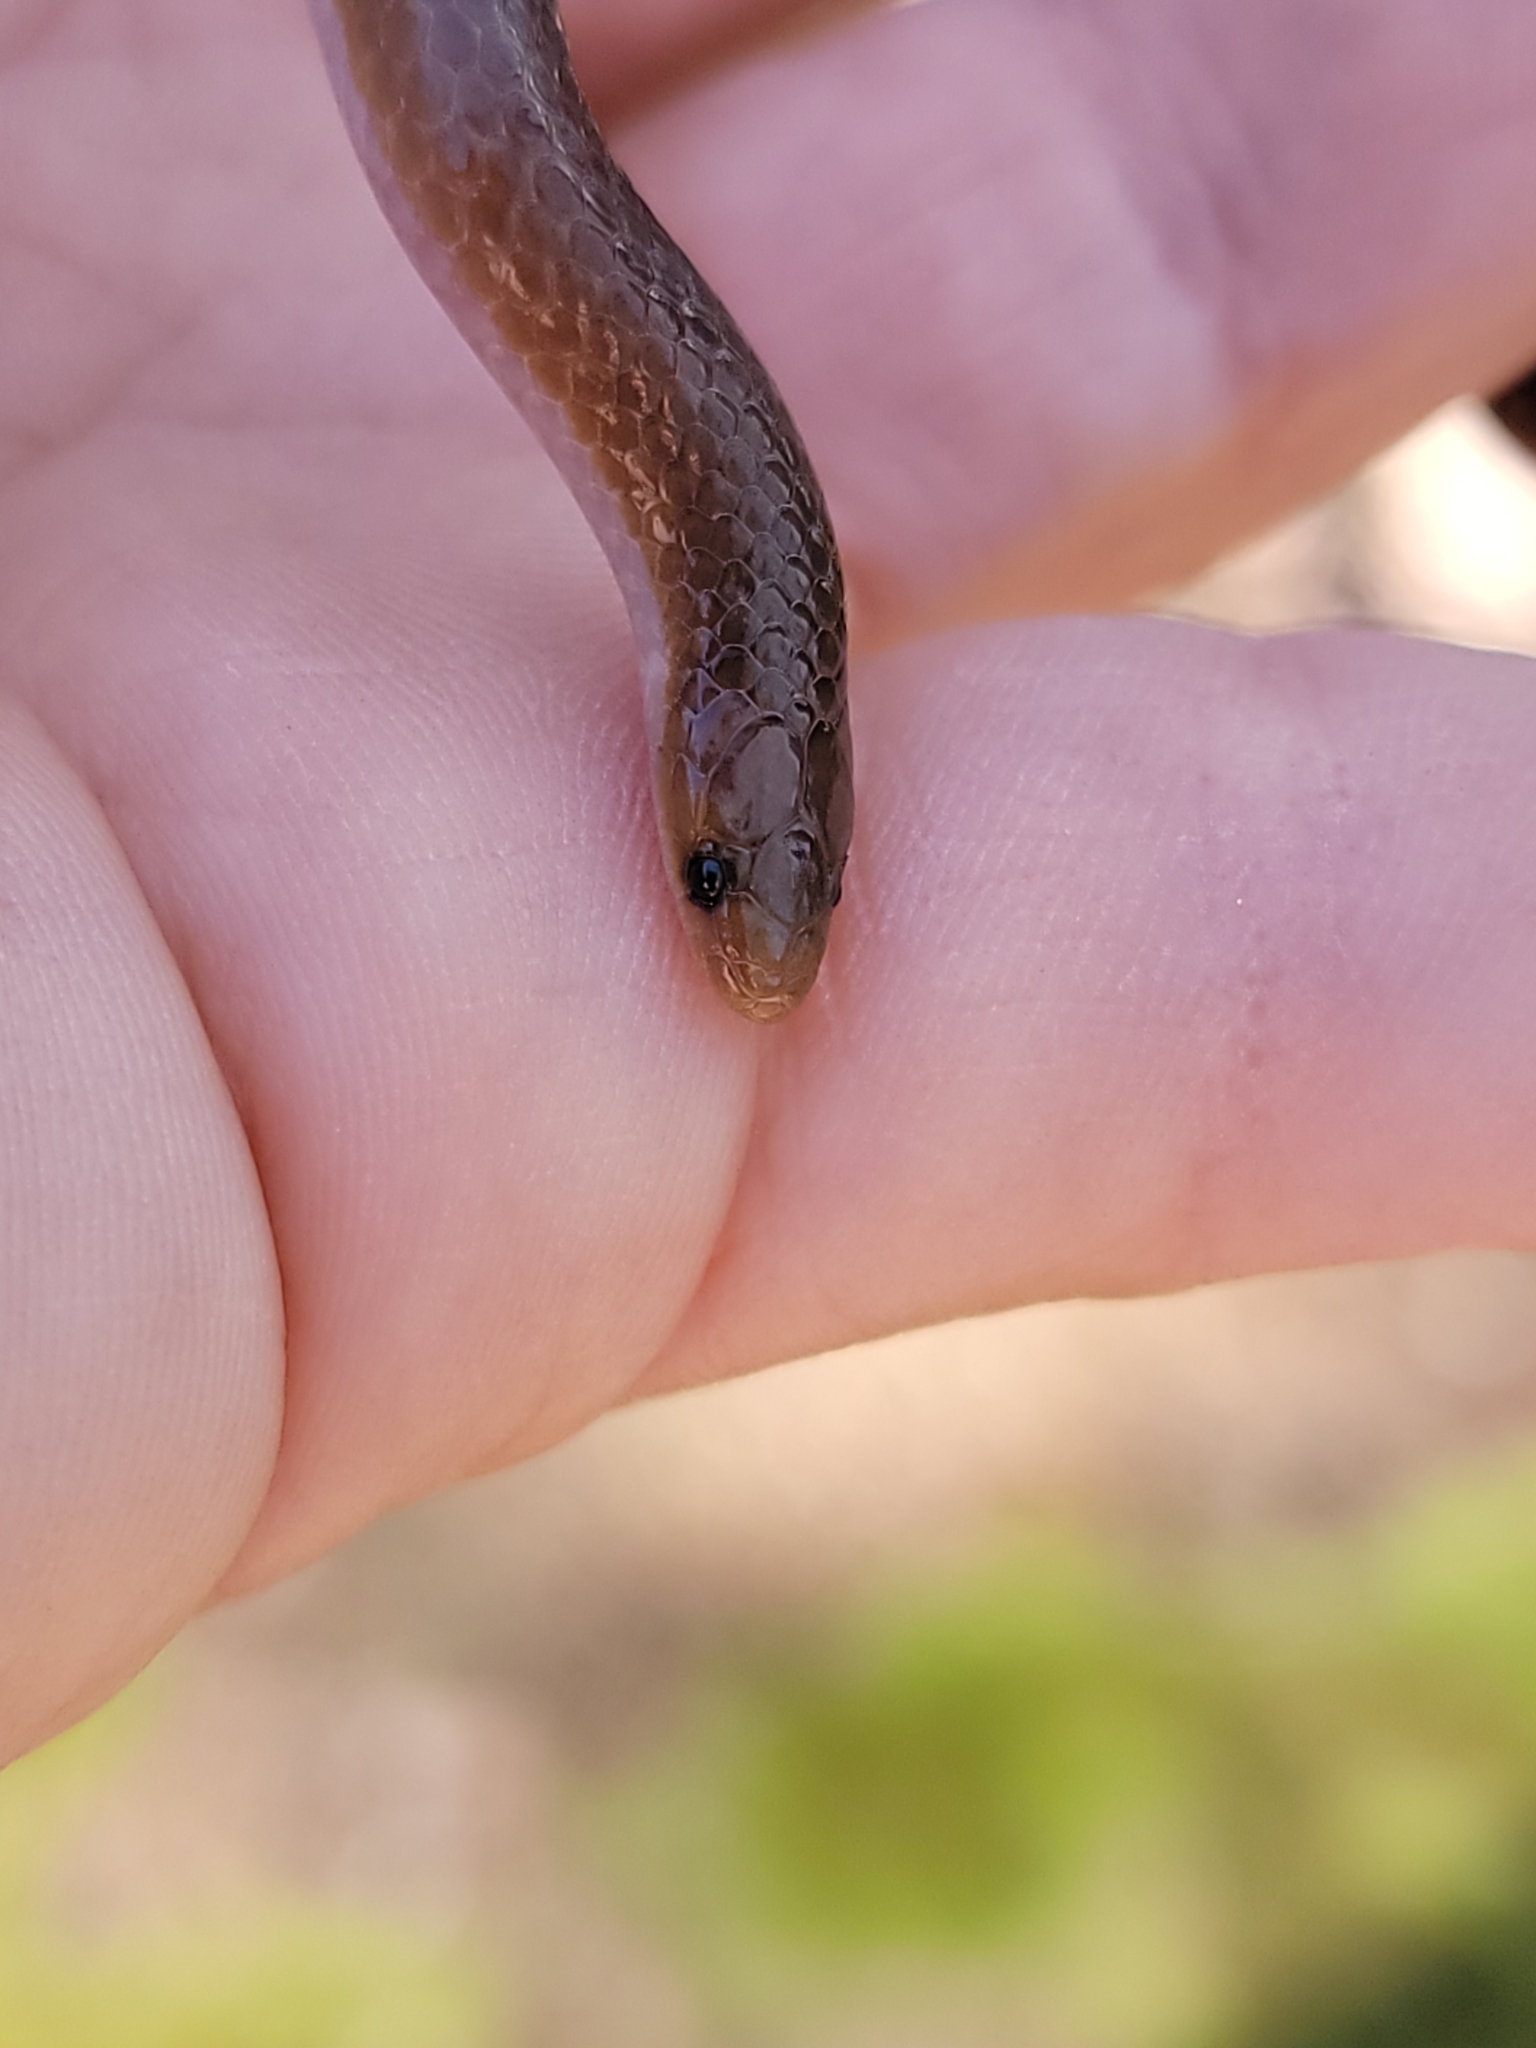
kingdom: Animalia
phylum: Chordata
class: Squamata
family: Colubridae
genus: Carphophis
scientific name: Carphophis amoenus
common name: Eastern worm snake
